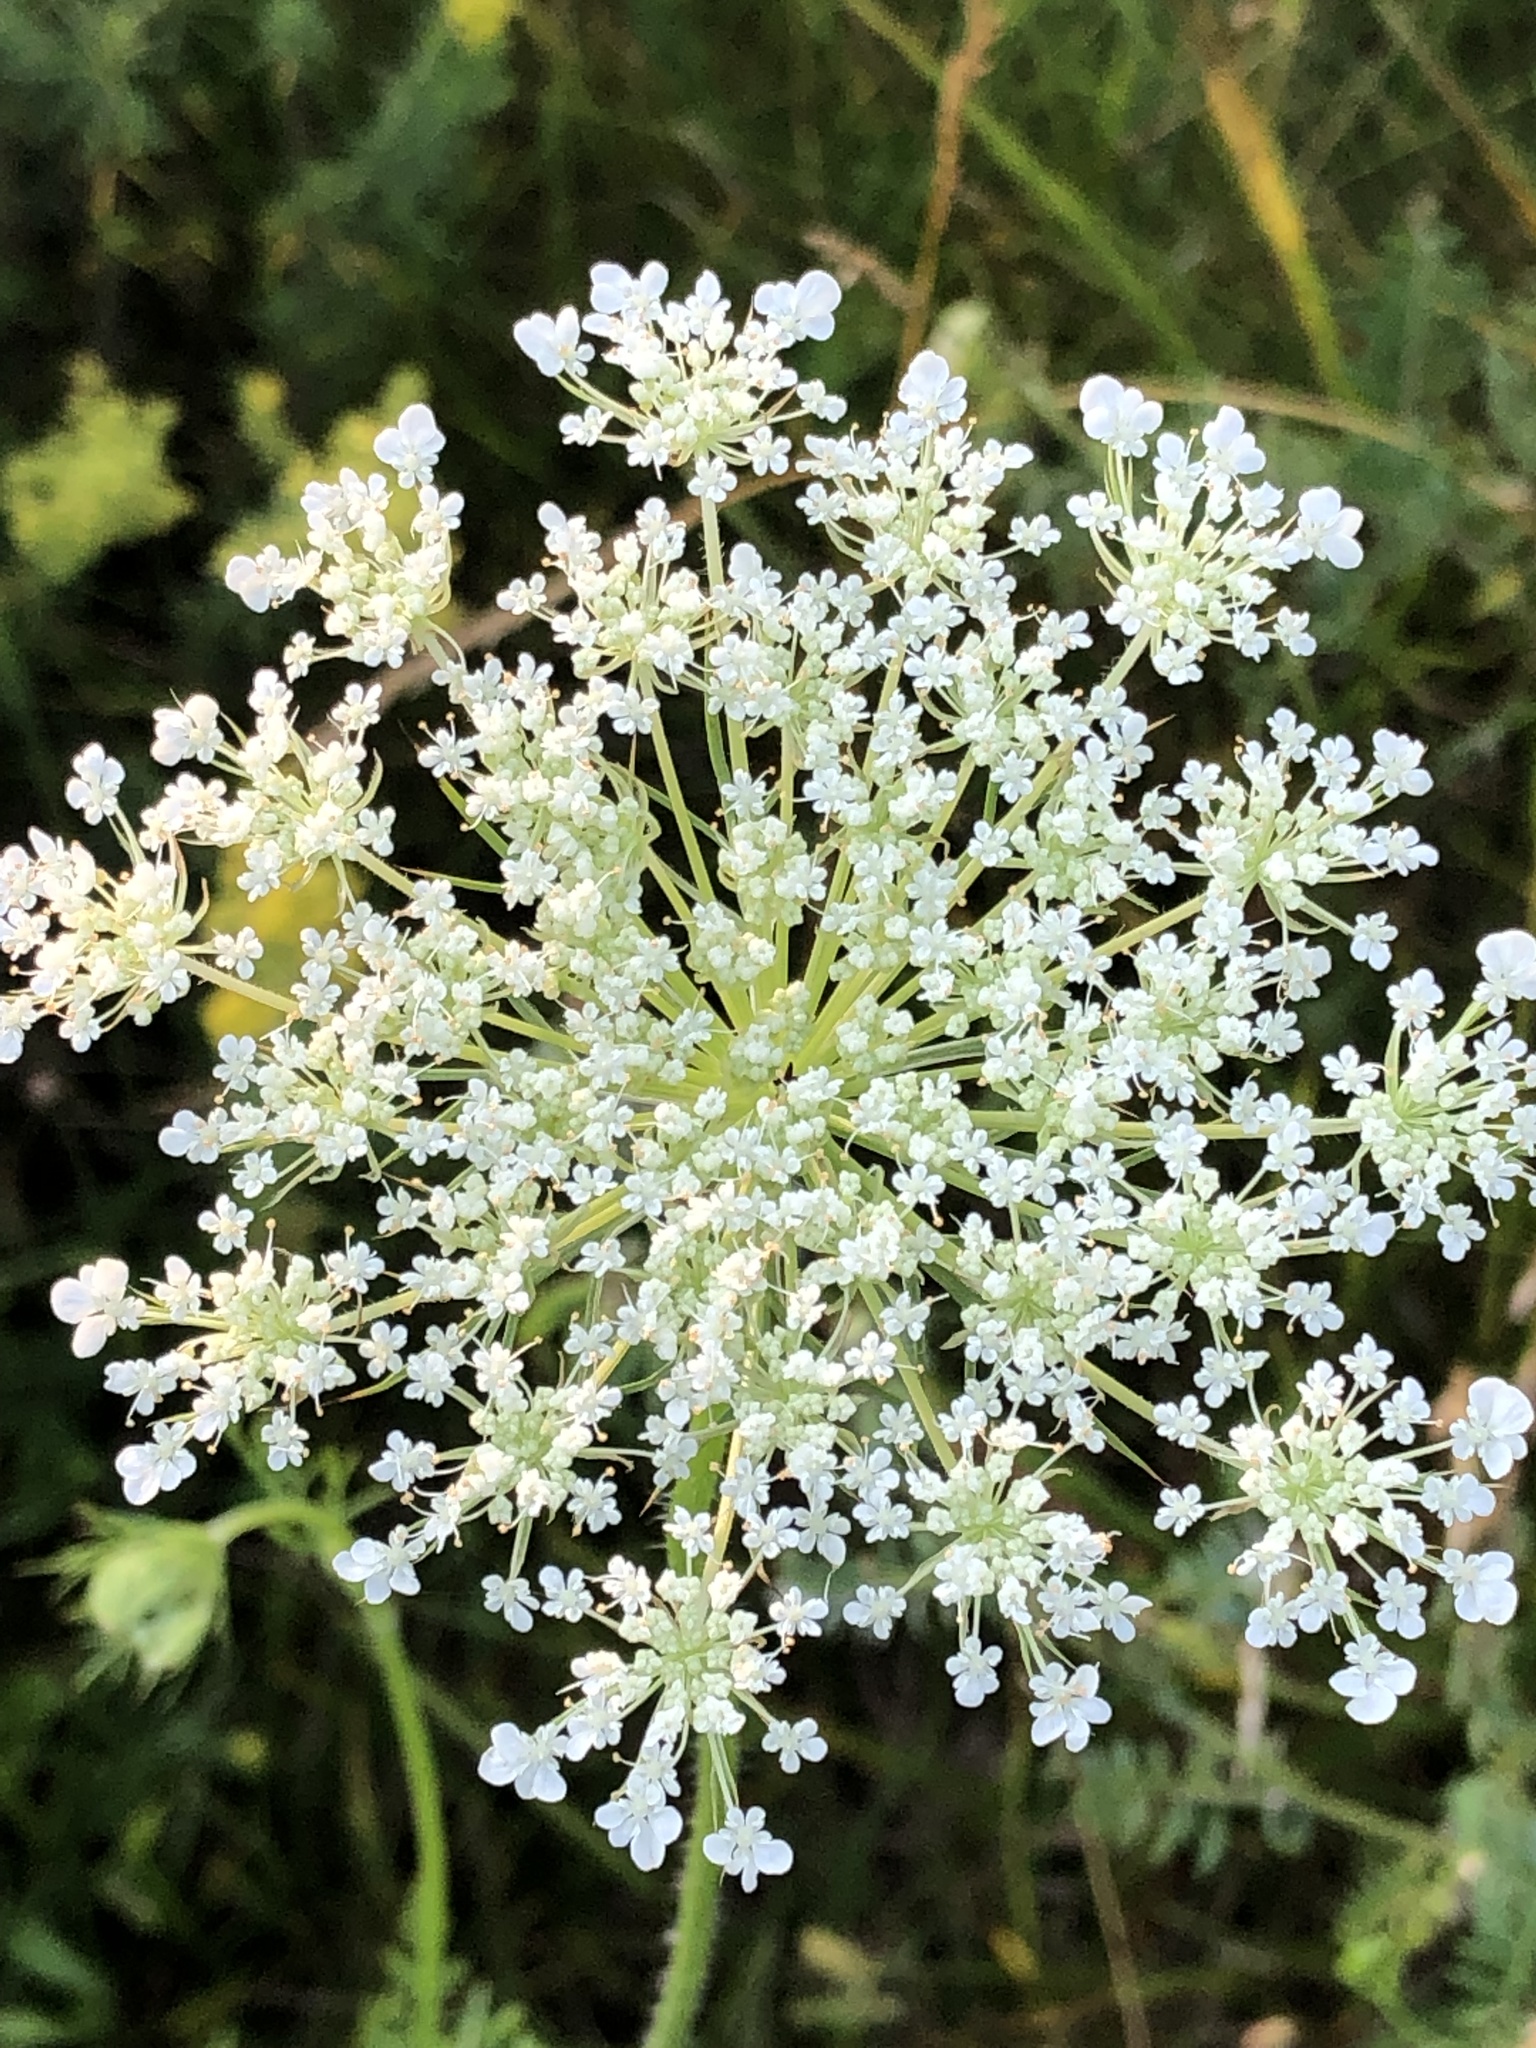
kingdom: Plantae
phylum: Tracheophyta
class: Magnoliopsida
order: Apiales
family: Apiaceae
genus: Daucus
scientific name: Daucus carota
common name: Wild carrot
